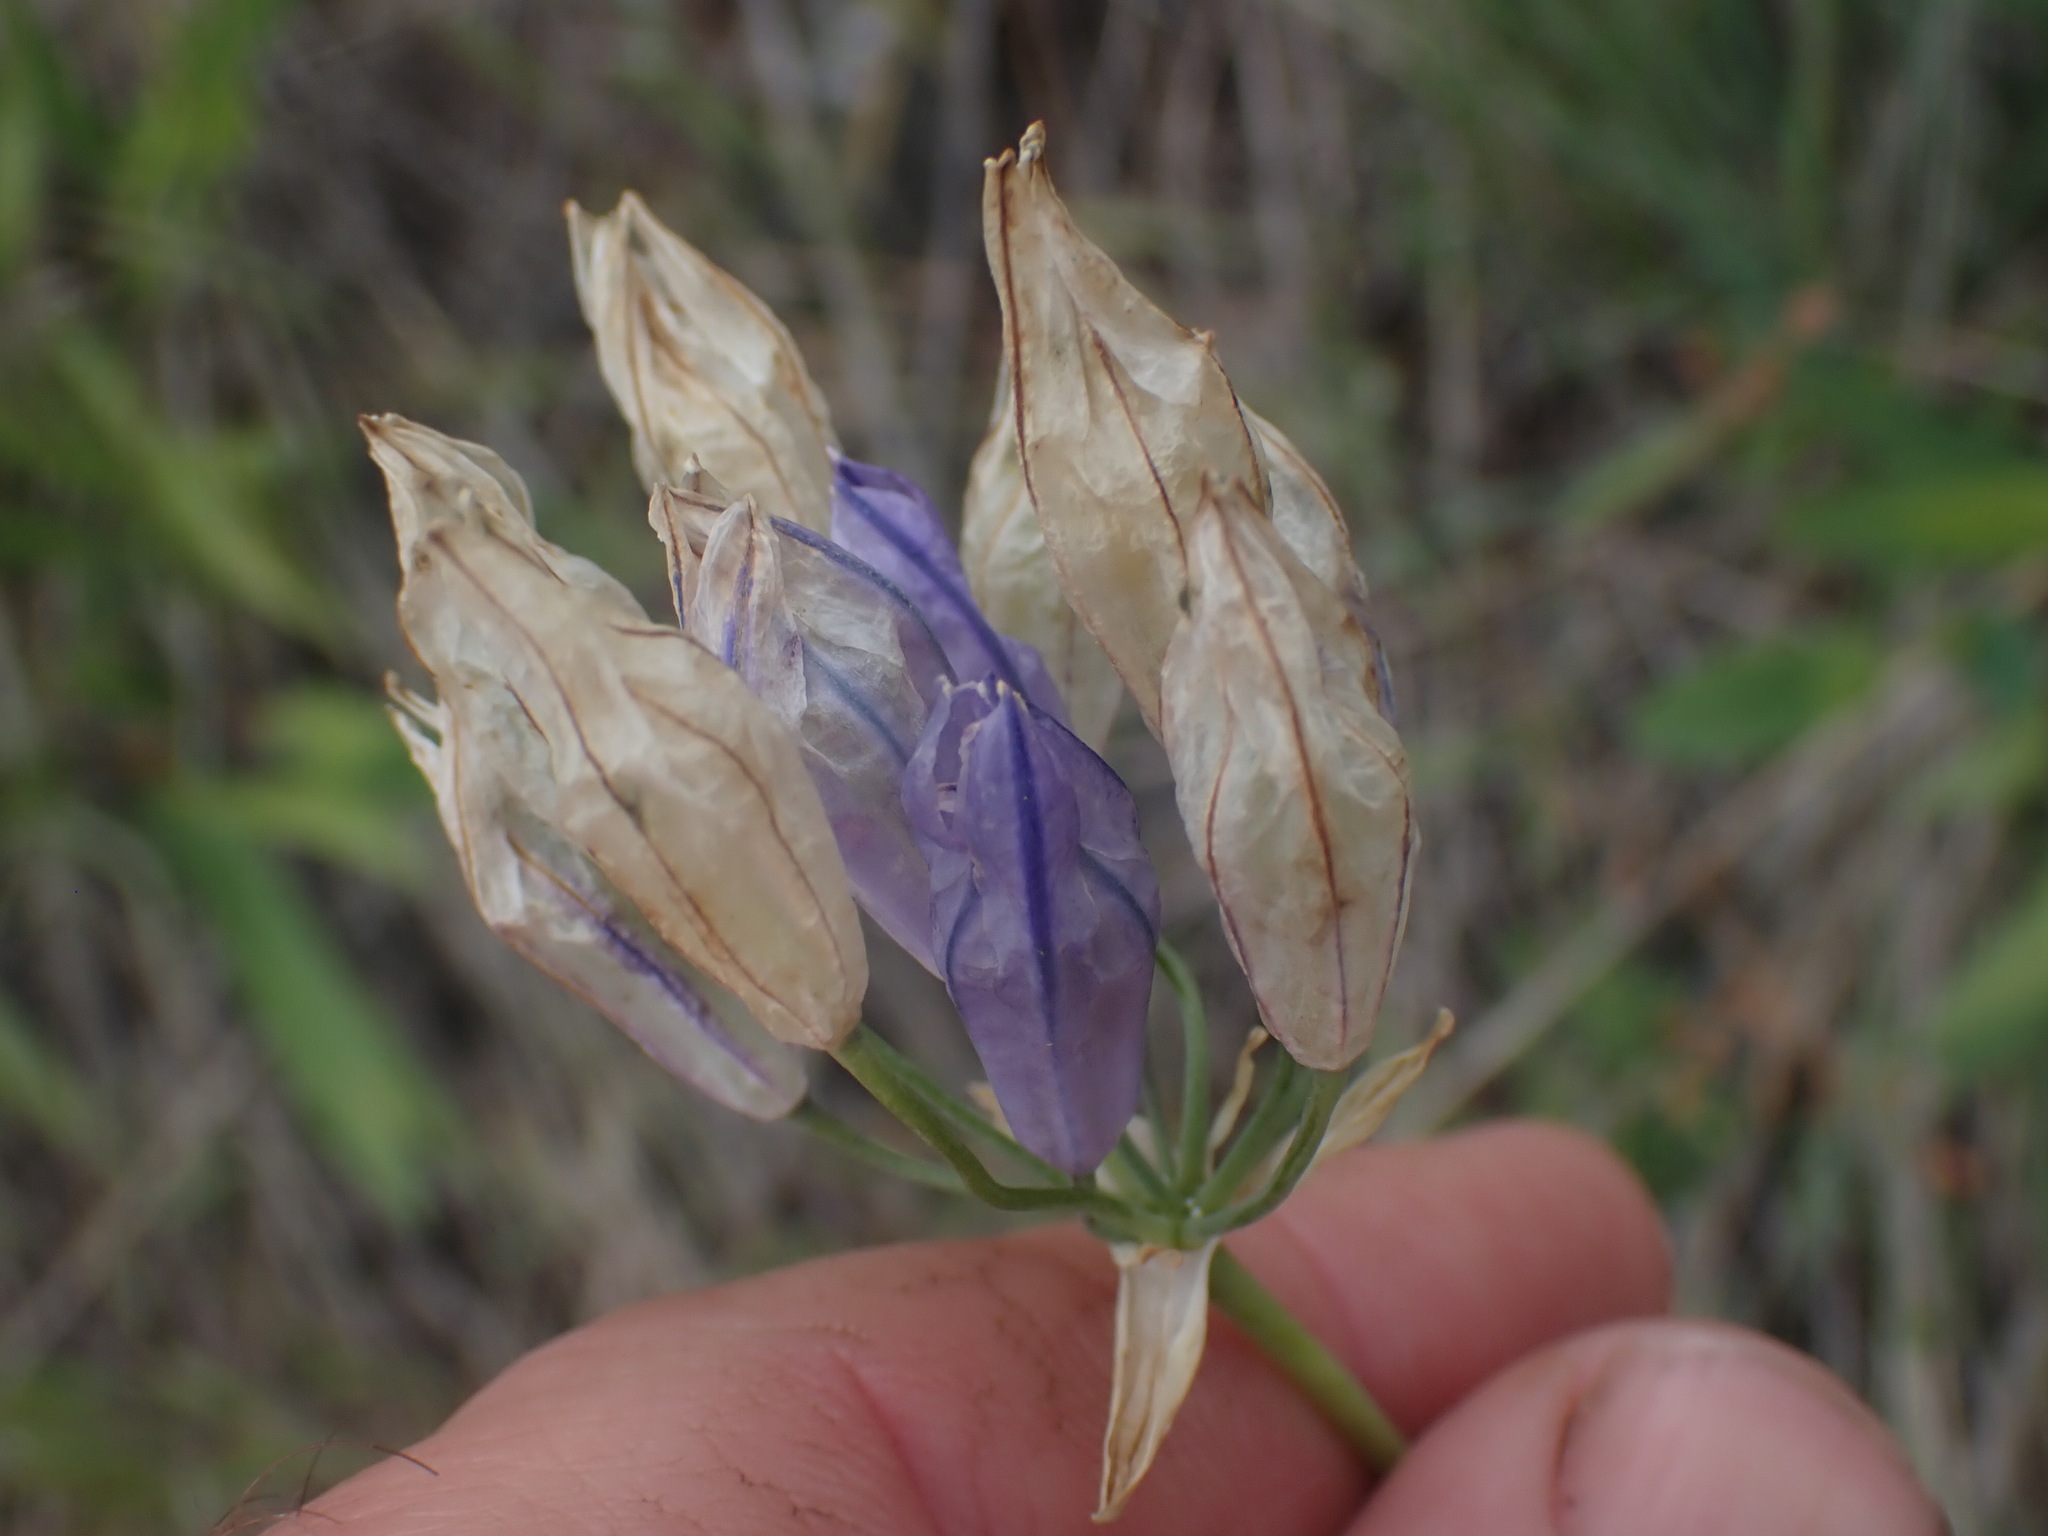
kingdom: Plantae
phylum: Tracheophyta
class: Liliopsida
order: Asparagales
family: Asparagaceae
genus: Triteleia
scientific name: Triteleia grandiflora
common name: Wild hyacinth
